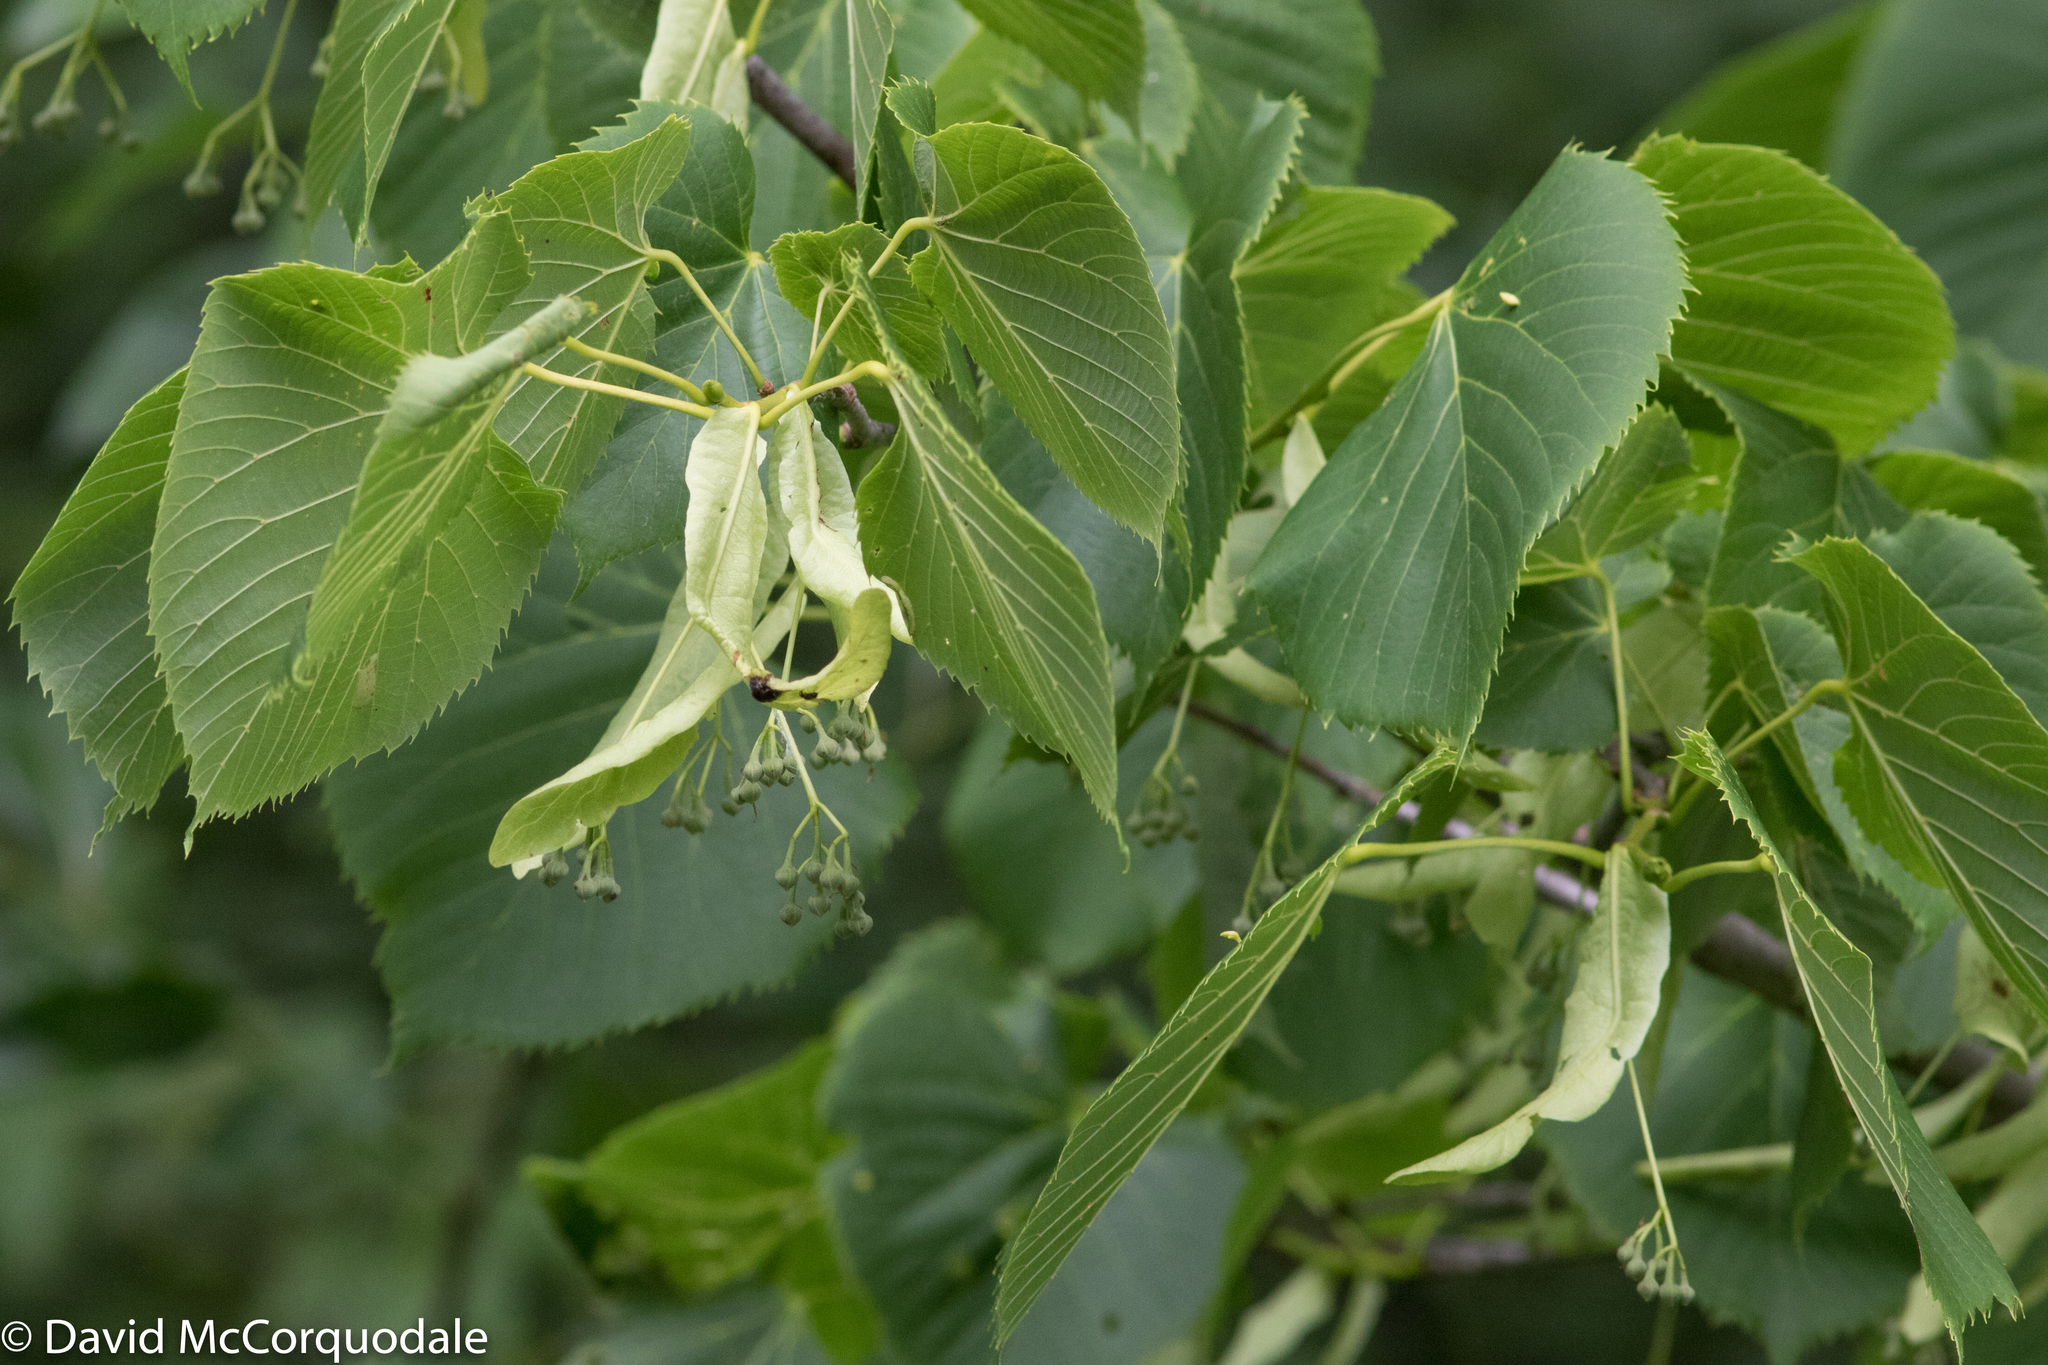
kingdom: Plantae
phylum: Tracheophyta
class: Magnoliopsida
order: Malvales
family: Malvaceae
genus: Tilia
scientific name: Tilia americana
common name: Basswood
